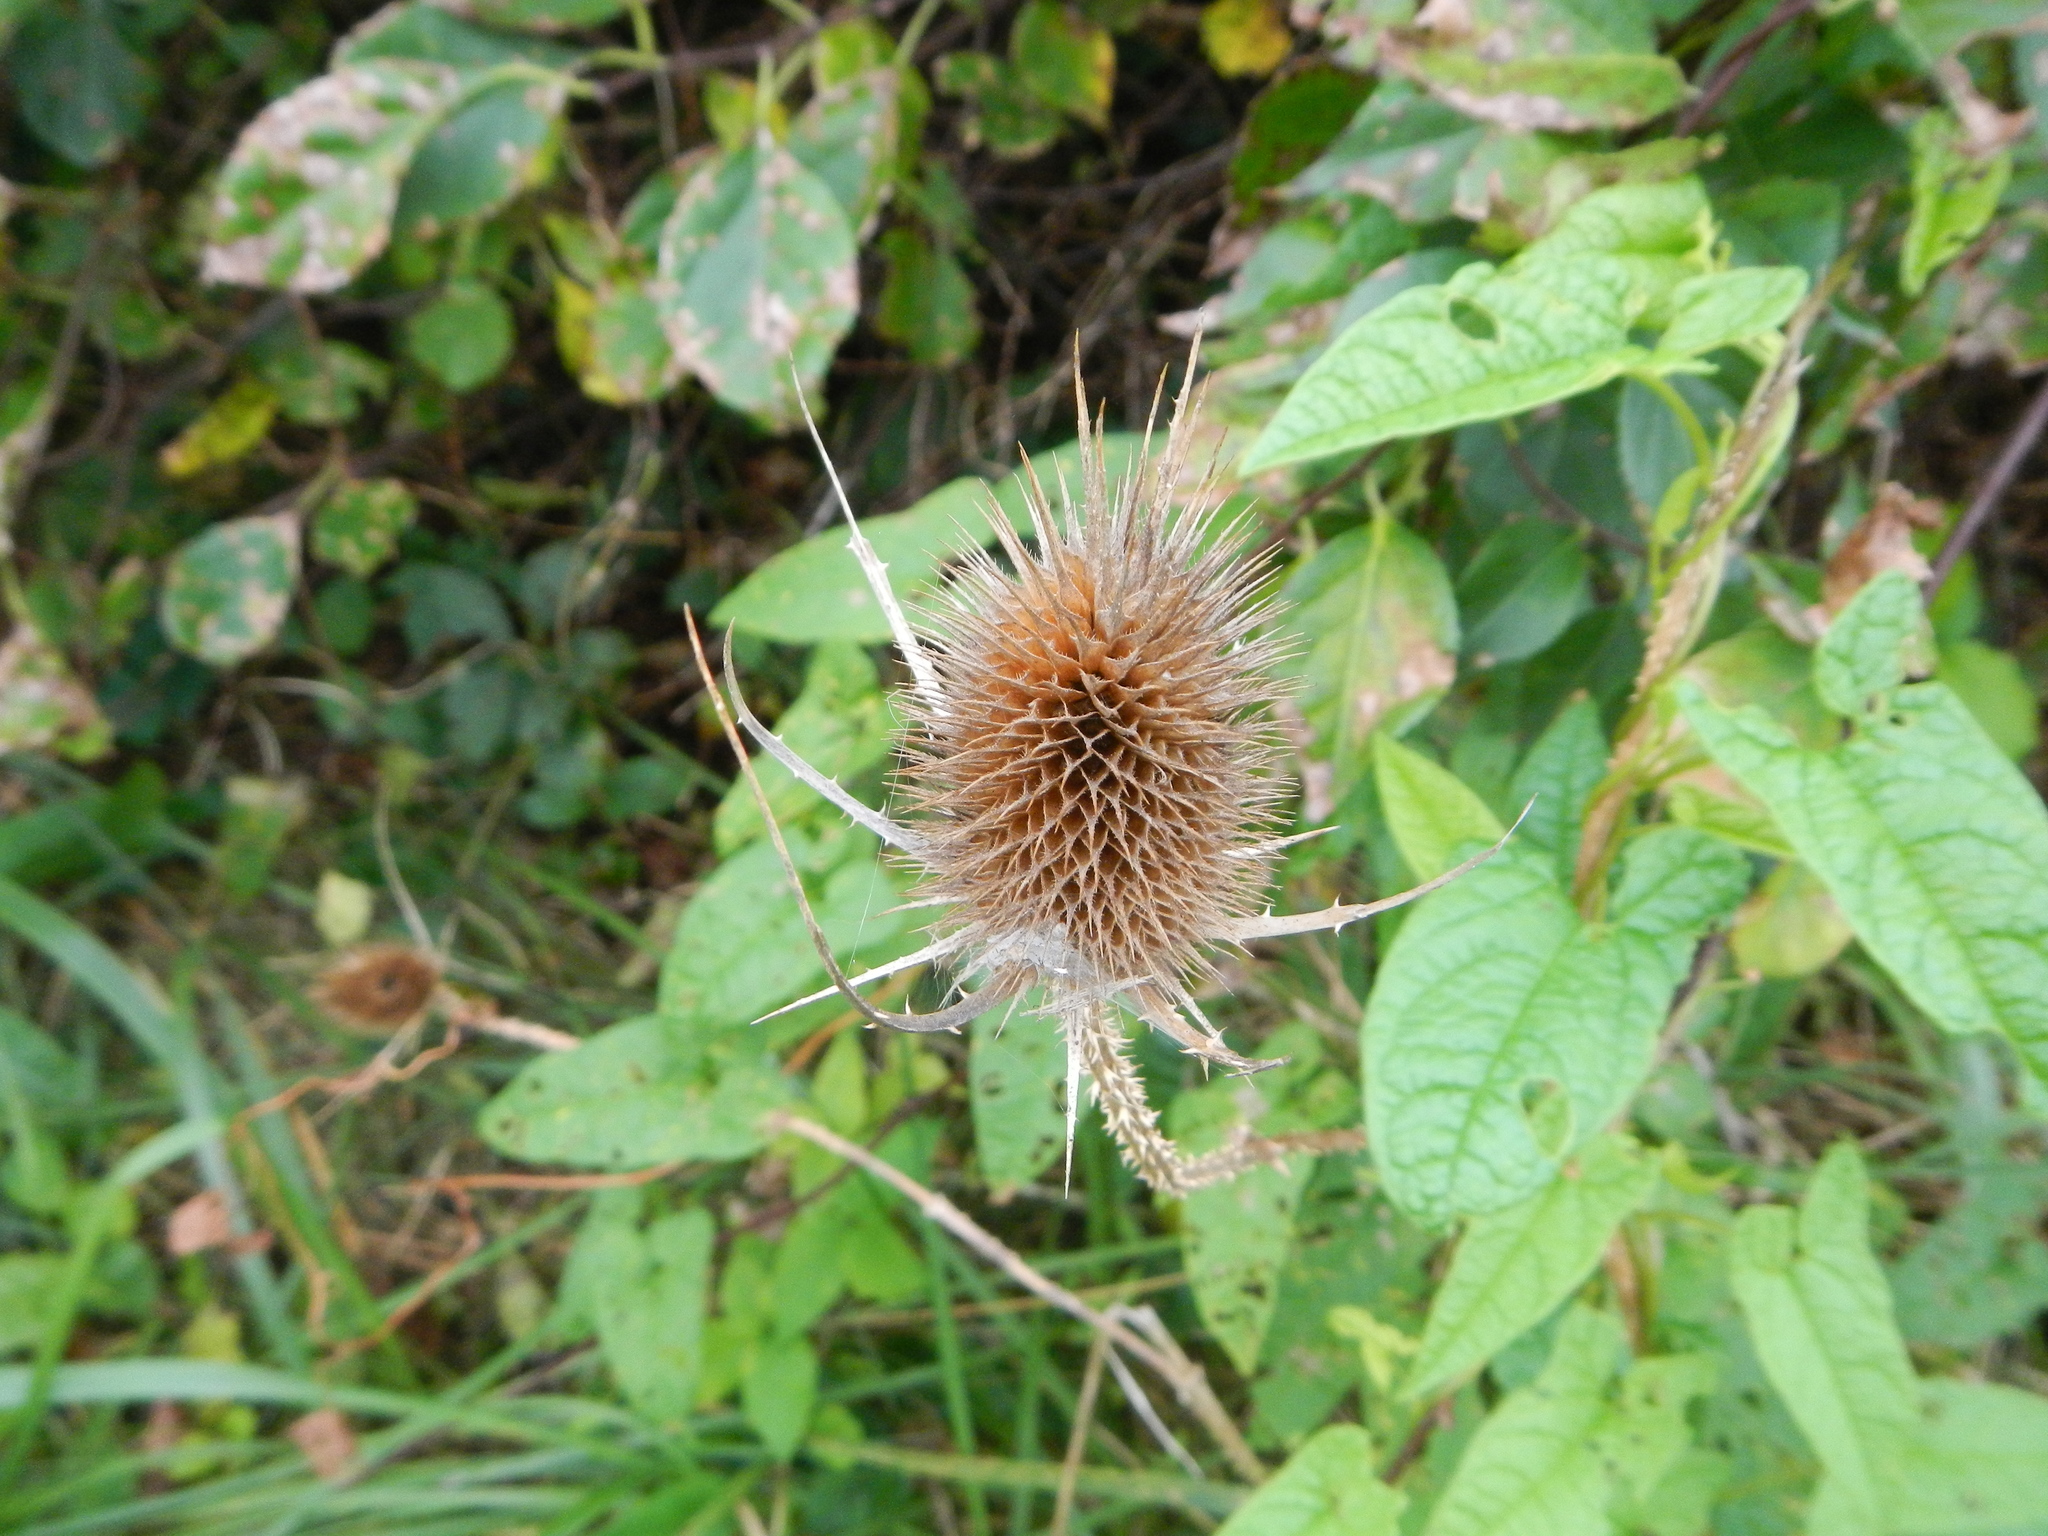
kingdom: Plantae
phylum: Tracheophyta
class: Magnoliopsida
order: Dipsacales
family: Caprifoliaceae
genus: Dipsacus
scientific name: Dipsacus fullonum
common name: Teasel
